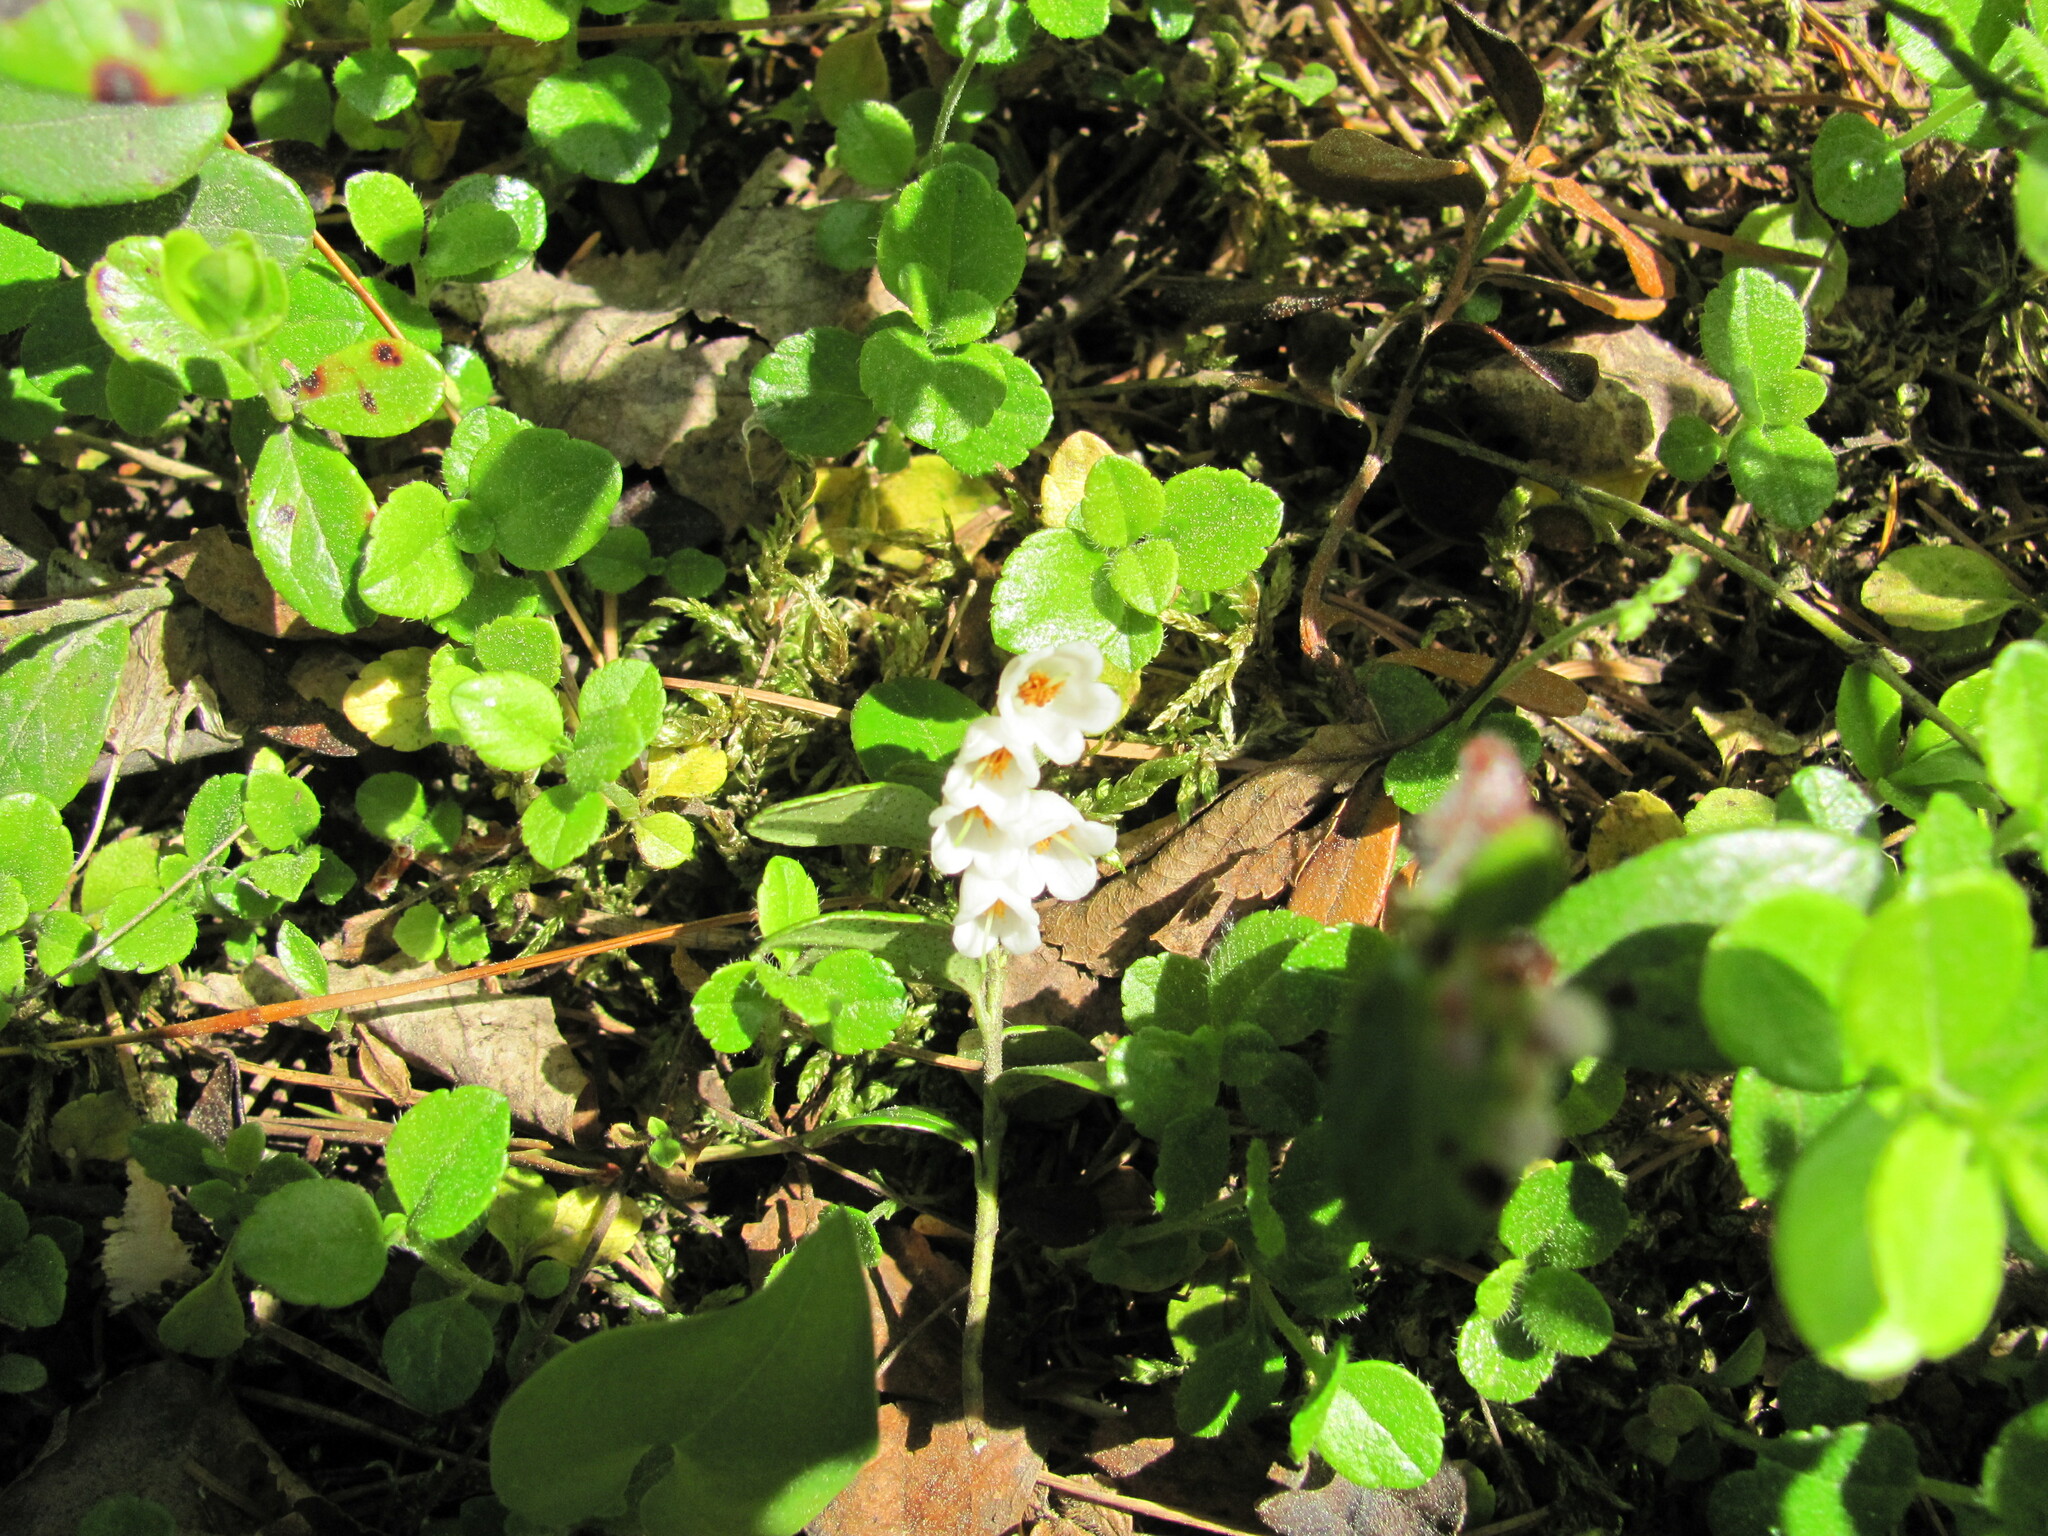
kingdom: Plantae
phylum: Tracheophyta
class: Magnoliopsida
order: Dipsacales
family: Caprifoliaceae
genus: Linnaea
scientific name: Linnaea borealis
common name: Twinflower
